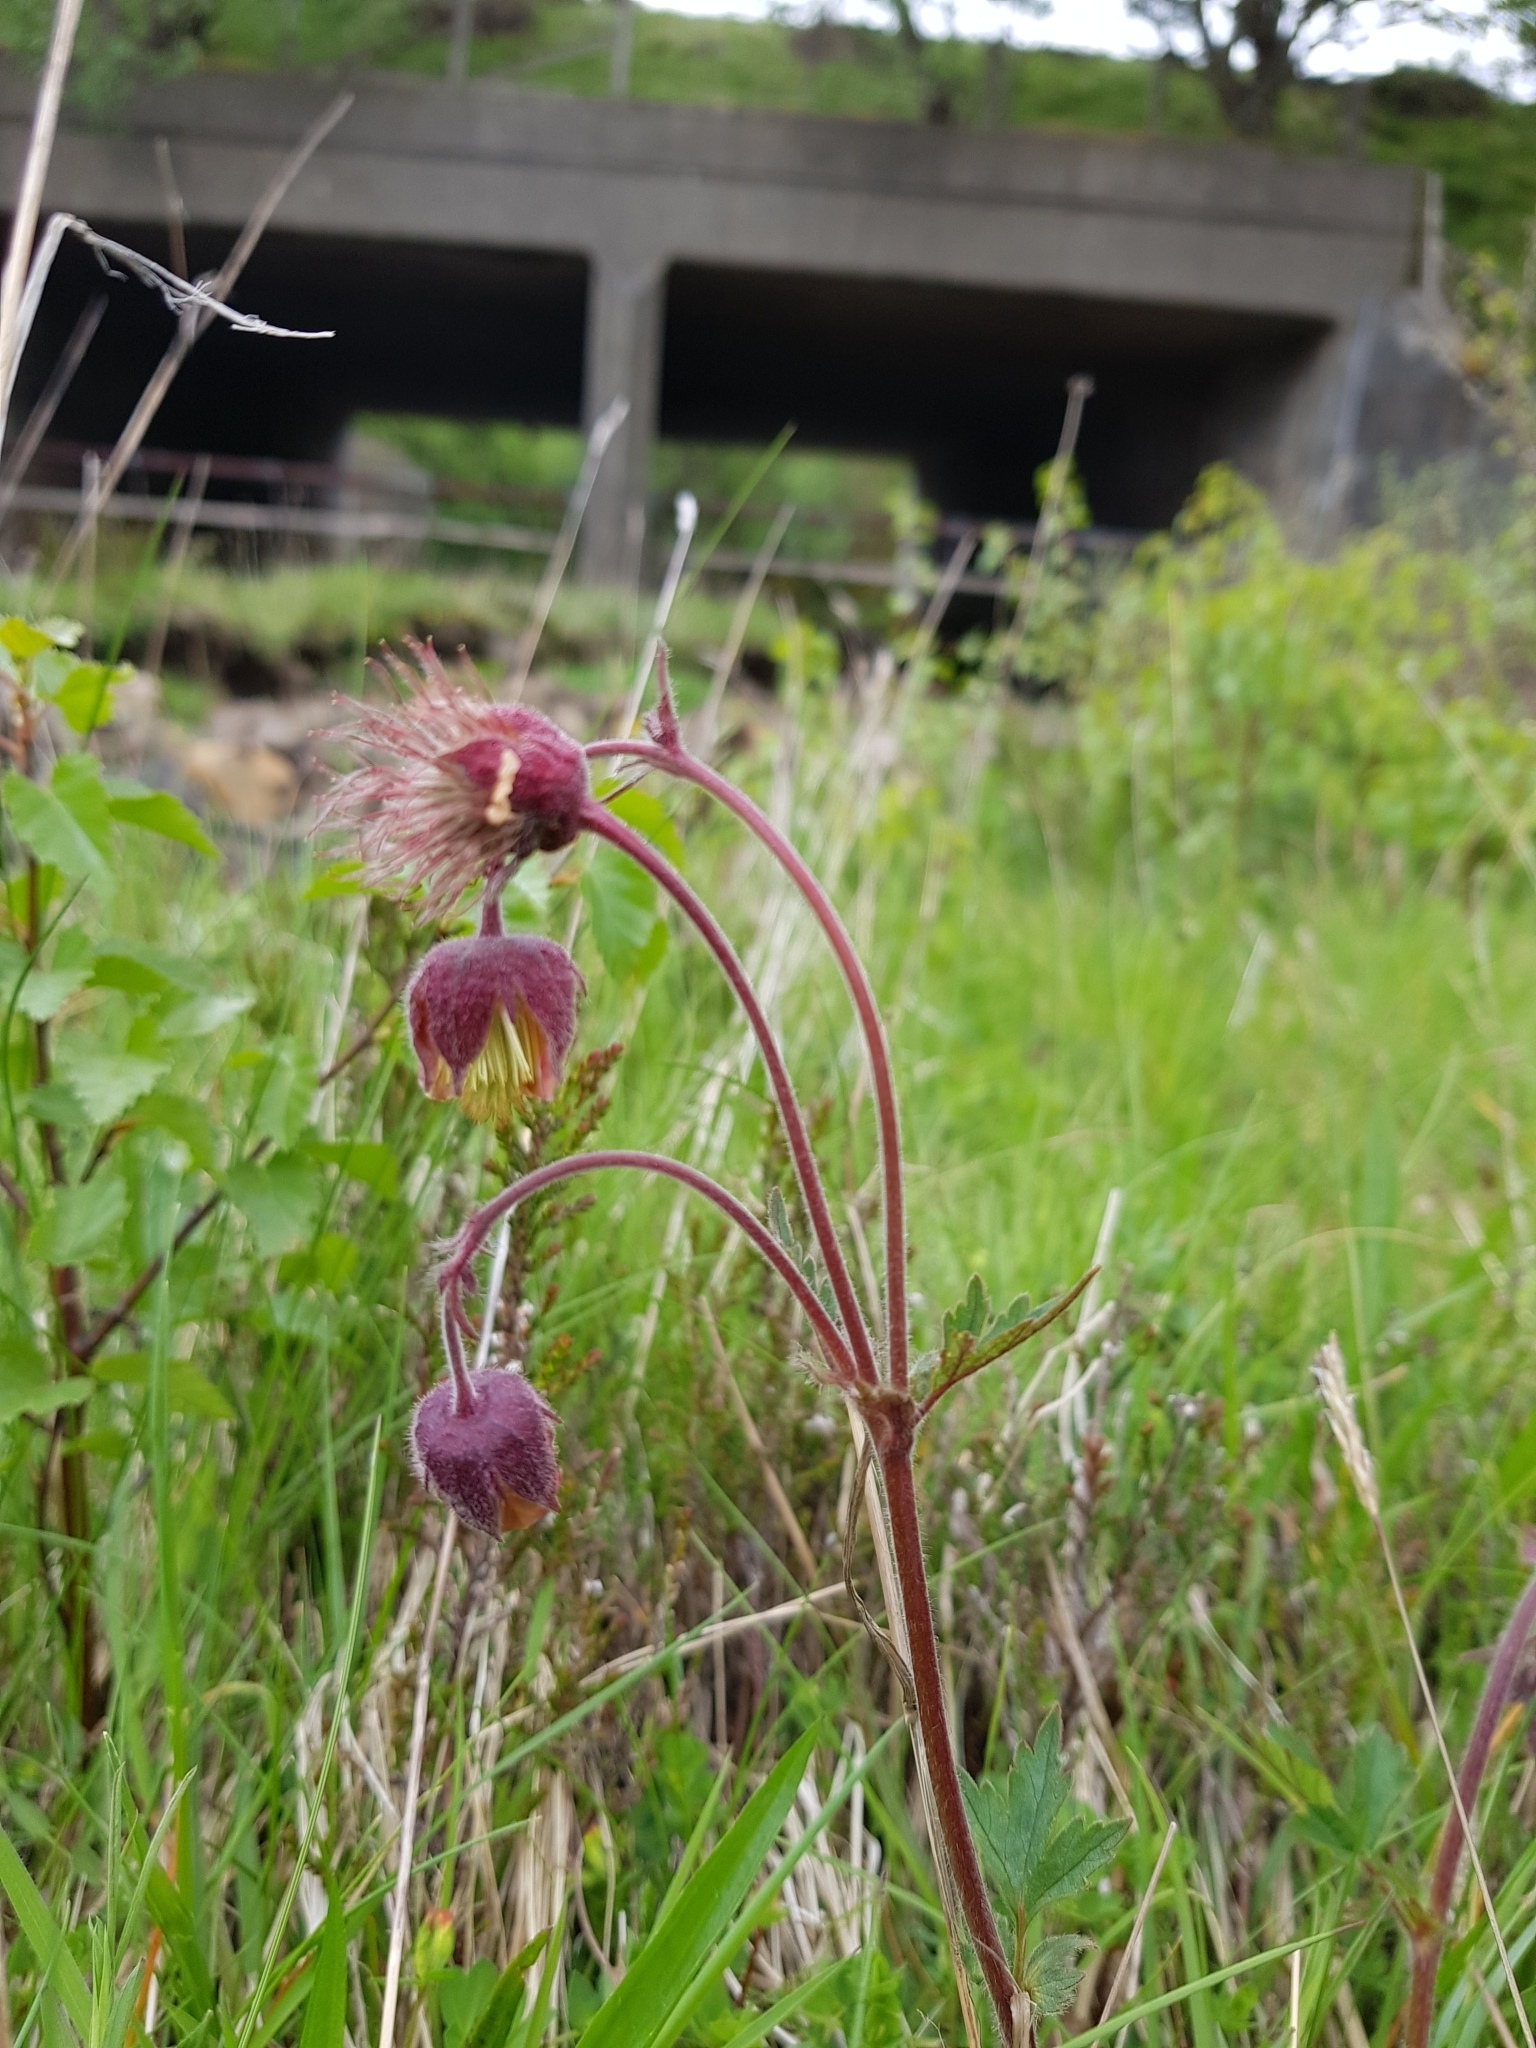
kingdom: Plantae
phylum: Tracheophyta
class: Magnoliopsida
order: Rosales
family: Rosaceae
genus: Geum
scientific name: Geum rivale
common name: Water avens
